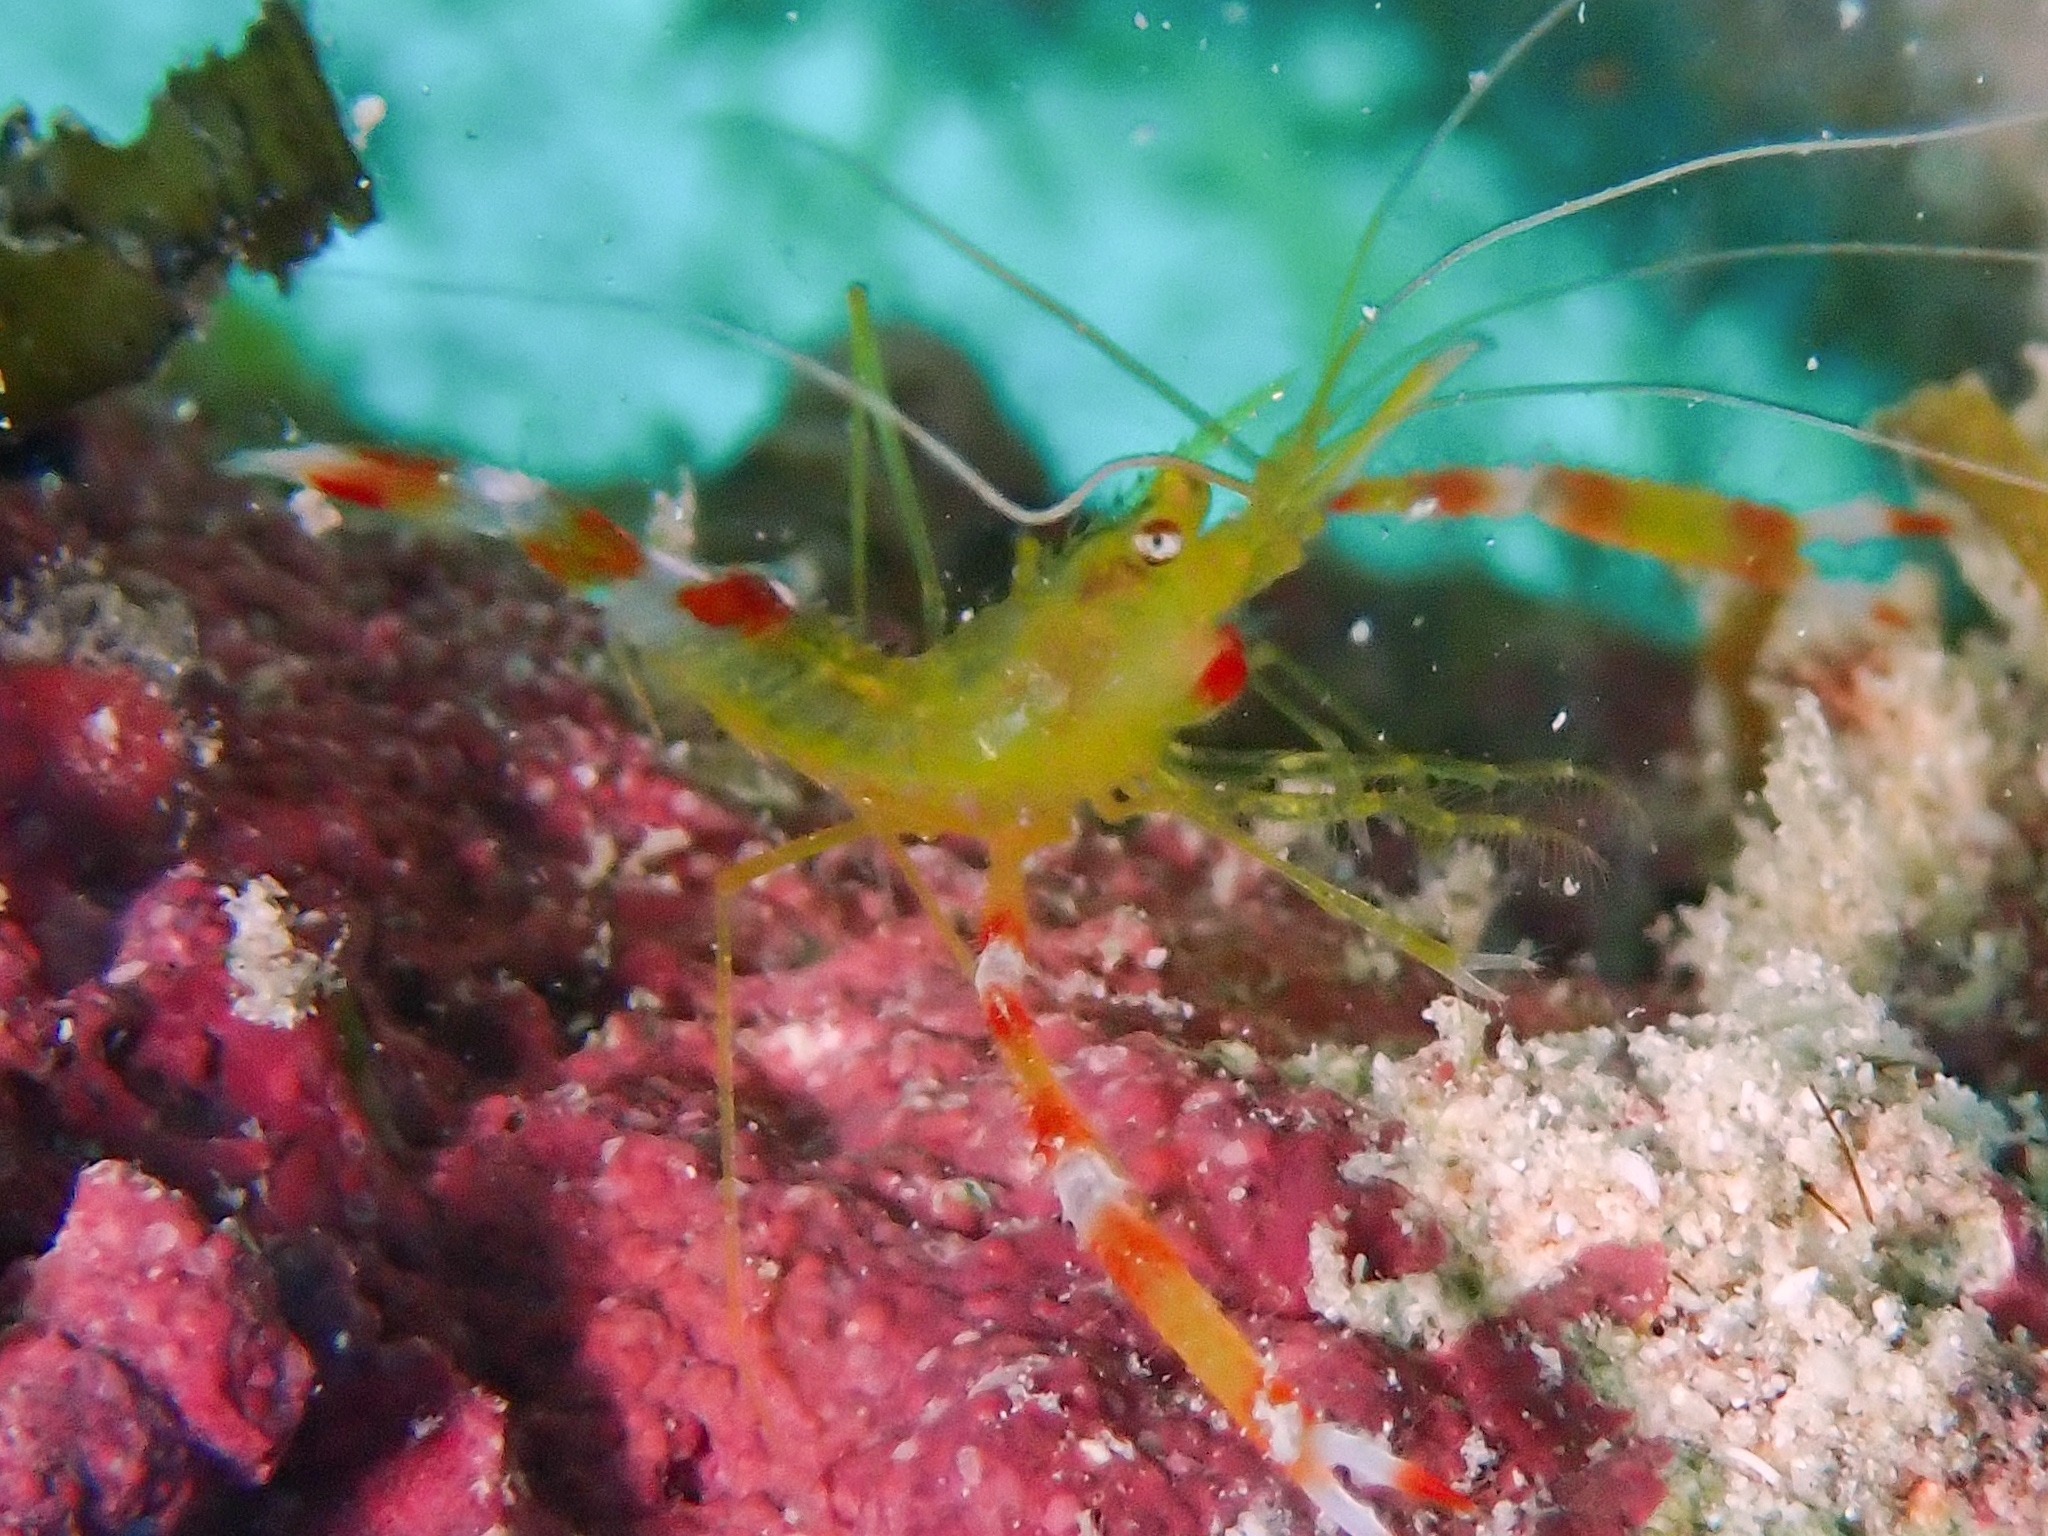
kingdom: Animalia
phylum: Arthropoda
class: Malacostraca
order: Decapoda
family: Stenopodidae
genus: Stenopus
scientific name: Stenopus scutellatus
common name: Golden coral shrimp
